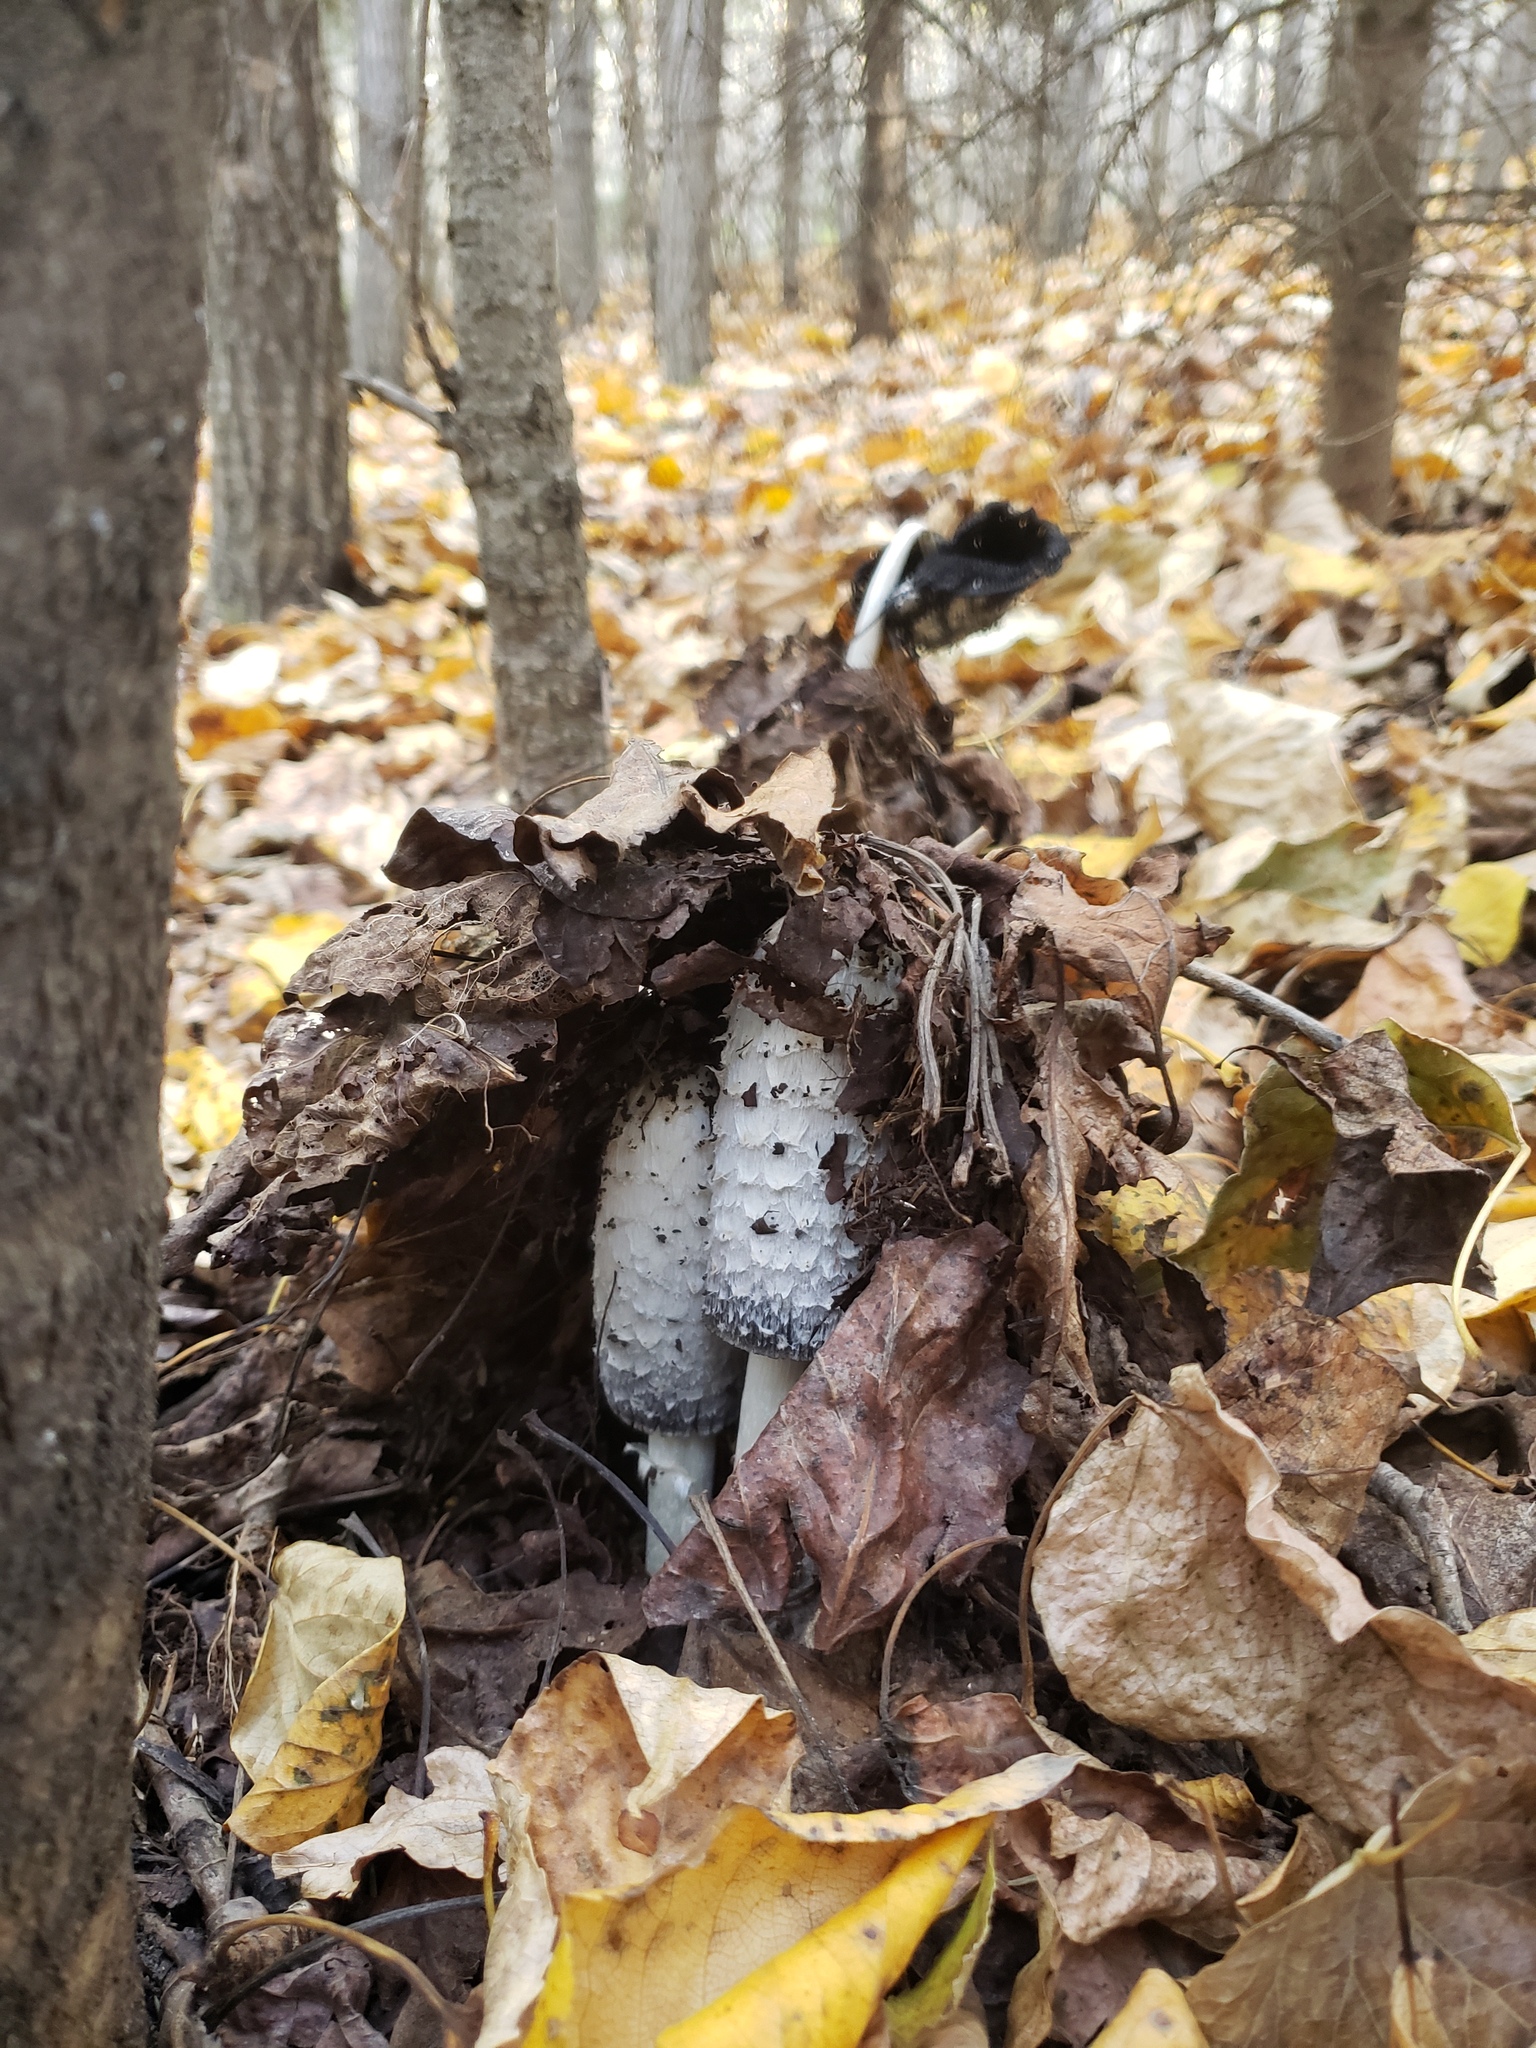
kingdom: Fungi
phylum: Basidiomycota
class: Agaricomycetes
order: Agaricales
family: Agaricaceae
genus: Coprinus
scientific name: Coprinus comatus
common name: Lawyer's wig
